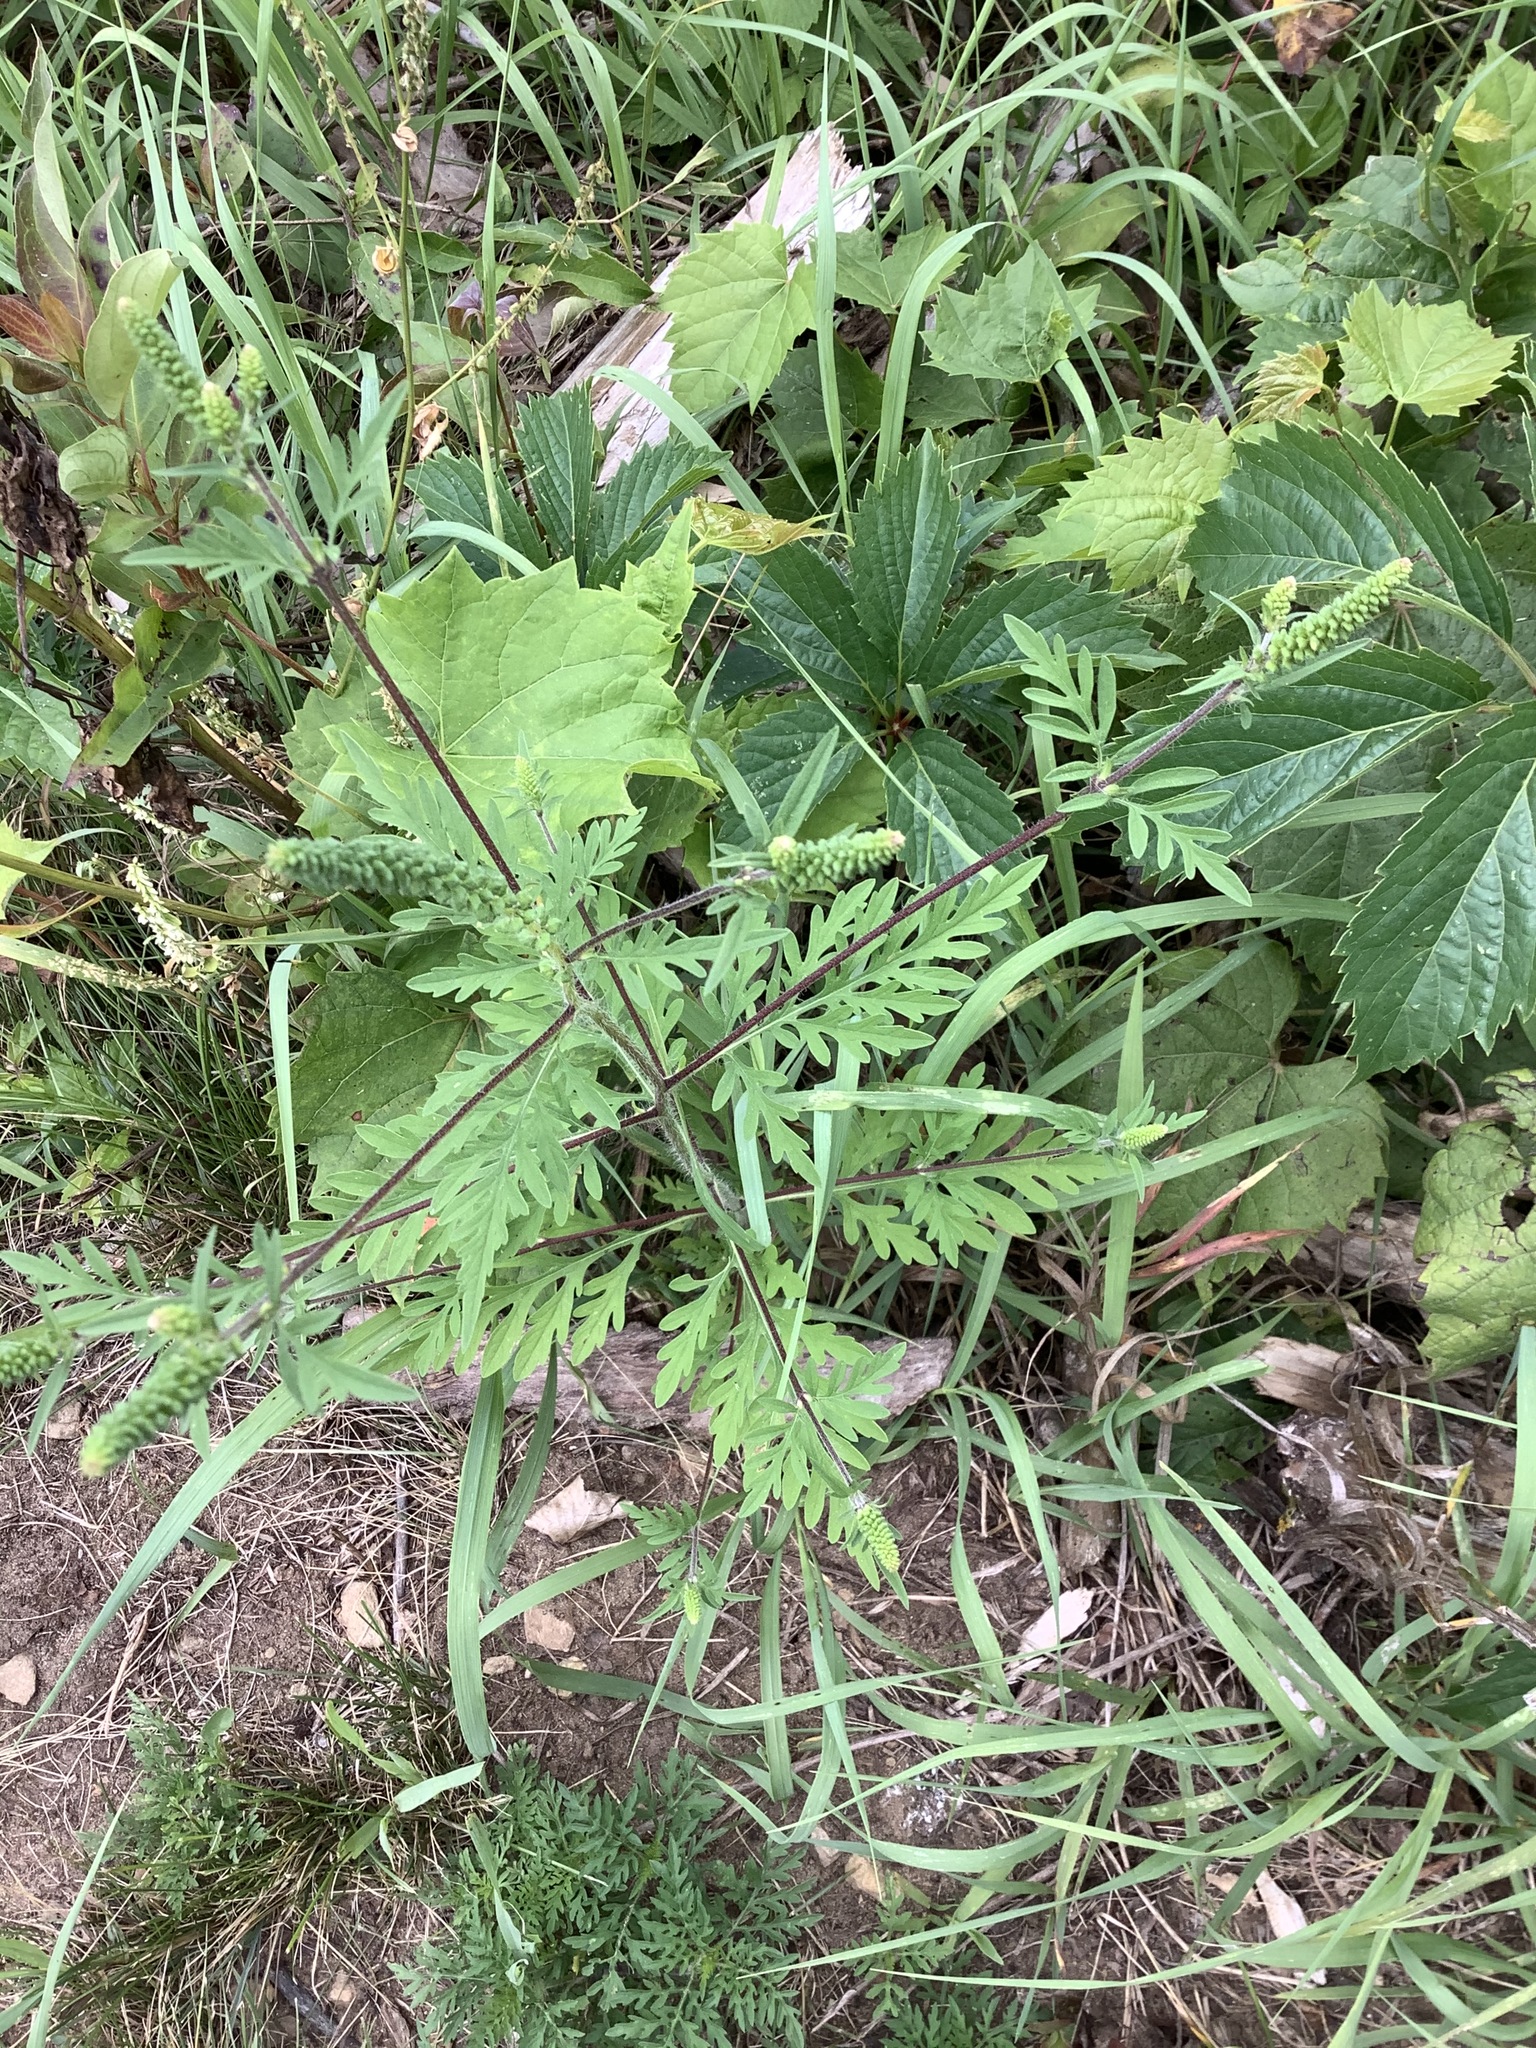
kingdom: Plantae
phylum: Tracheophyta
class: Magnoliopsida
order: Asterales
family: Asteraceae
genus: Ambrosia
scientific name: Ambrosia artemisiifolia
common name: Annual ragweed
